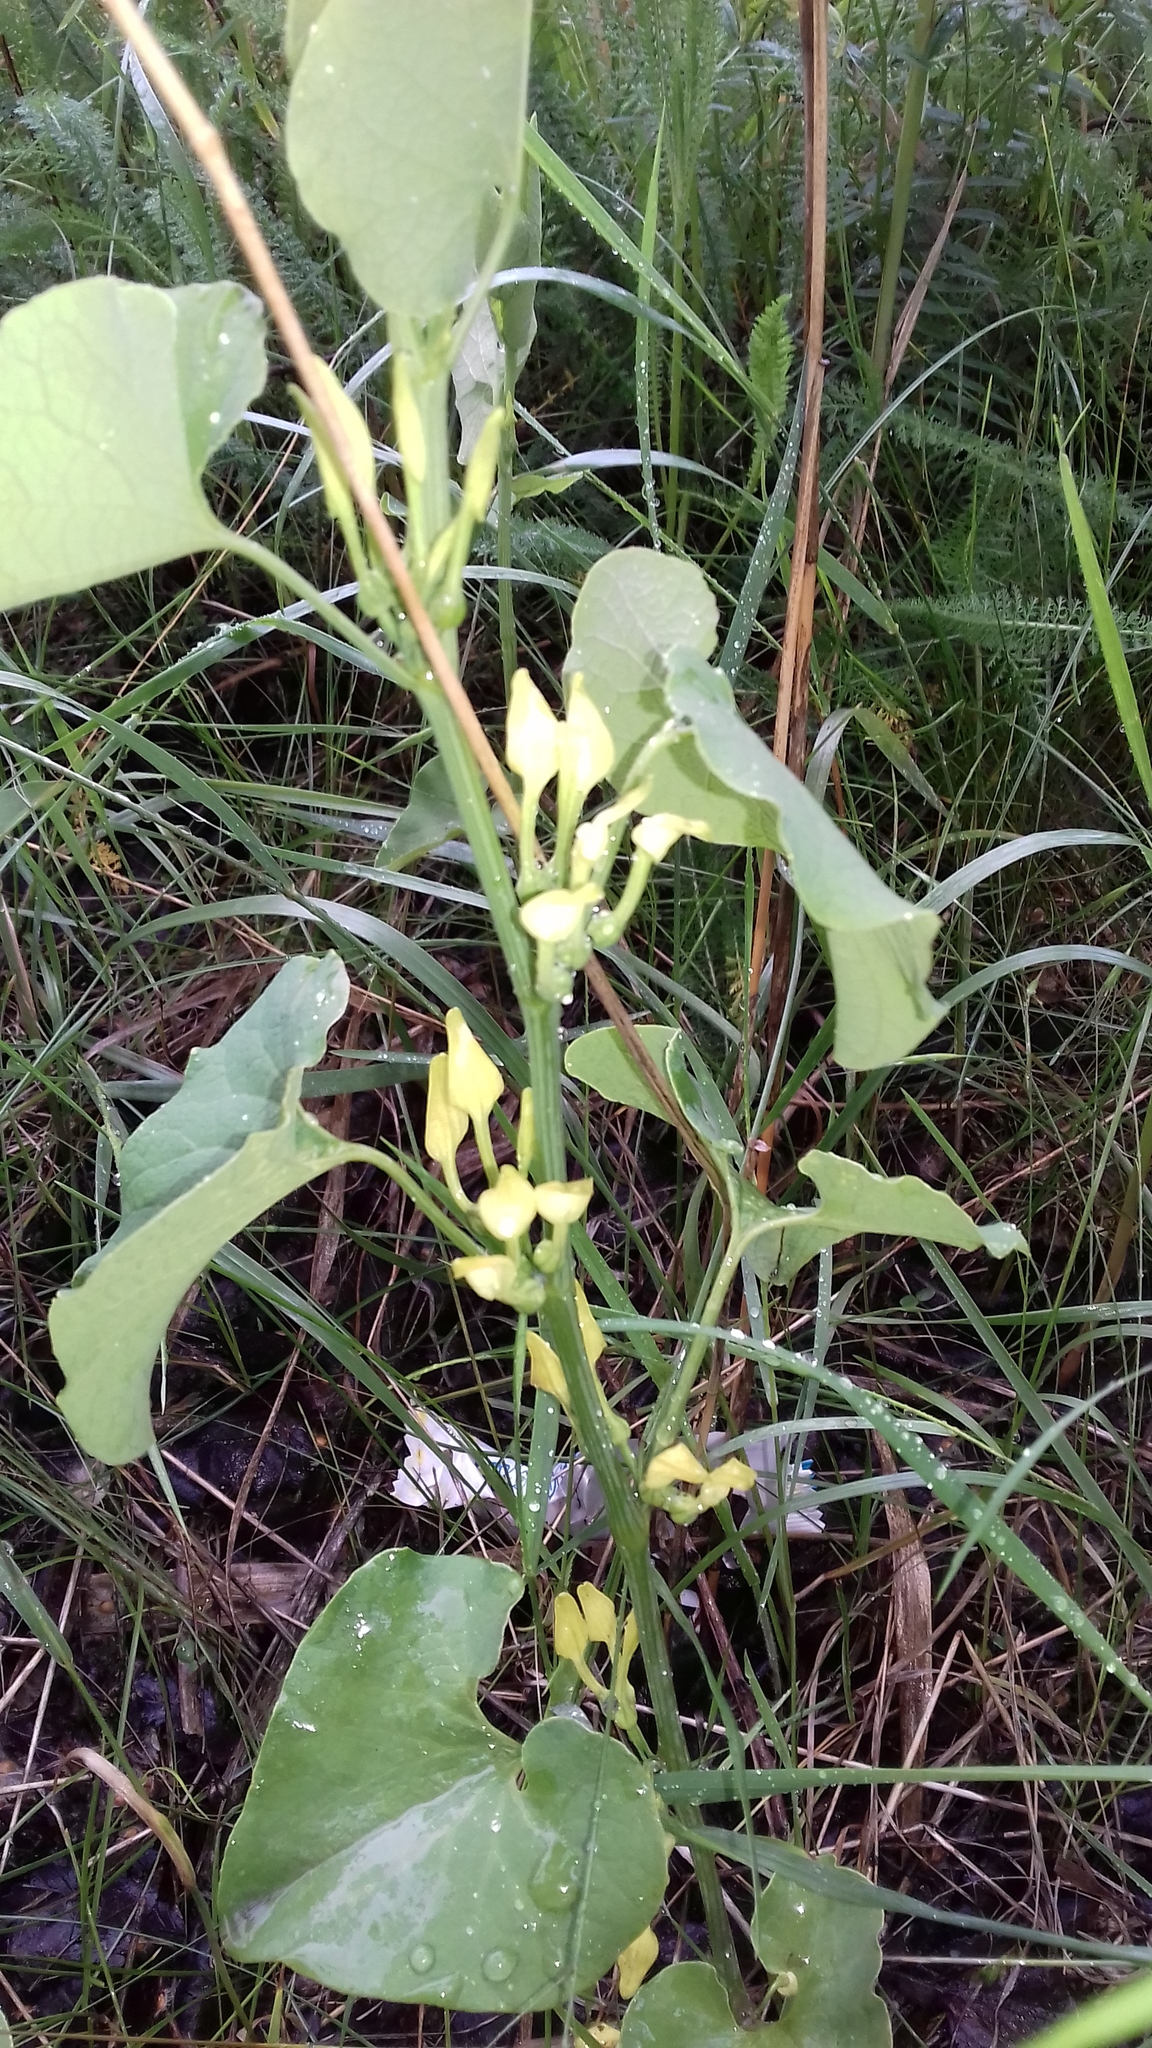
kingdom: Plantae
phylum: Tracheophyta
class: Magnoliopsida
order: Piperales
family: Aristolochiaceae
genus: Aristolochia
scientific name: Aristolochia clematitis
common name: Birthwort
